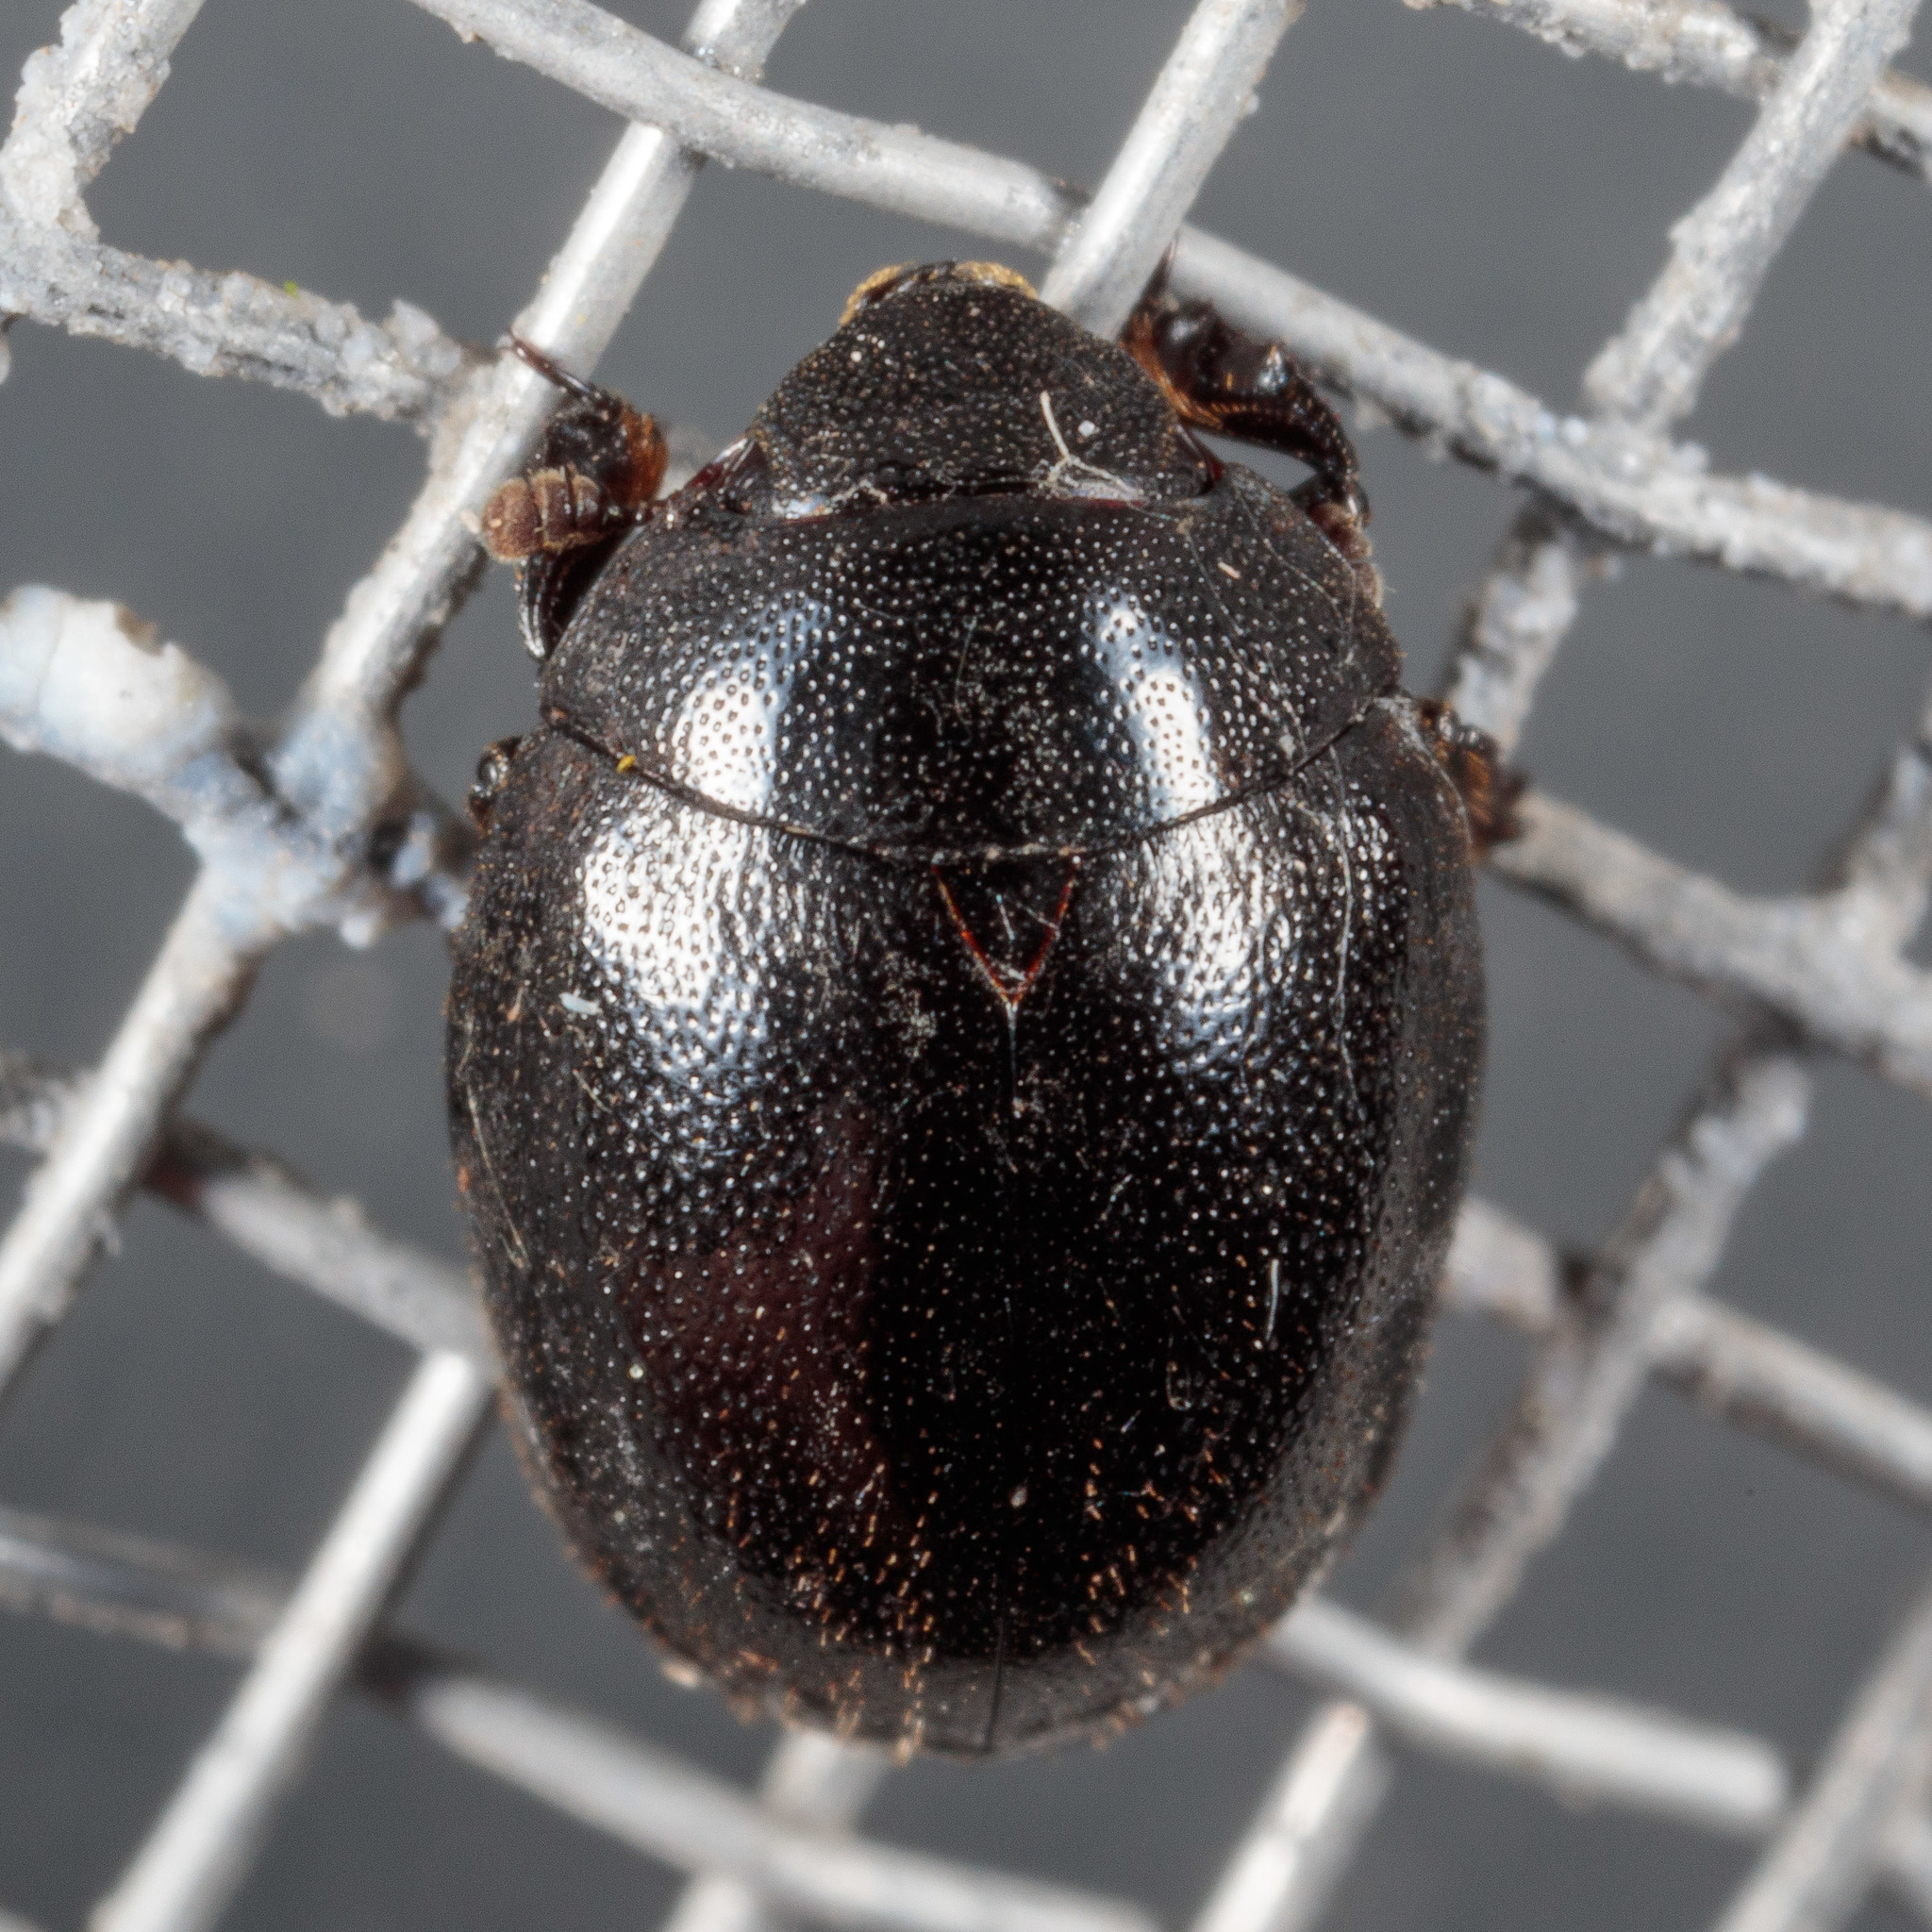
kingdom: Animalia
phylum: Arthropoda
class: Insecta
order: Coleoptera
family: Nosodendridae
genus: Nosodendron
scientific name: Nosodendron unicolor
